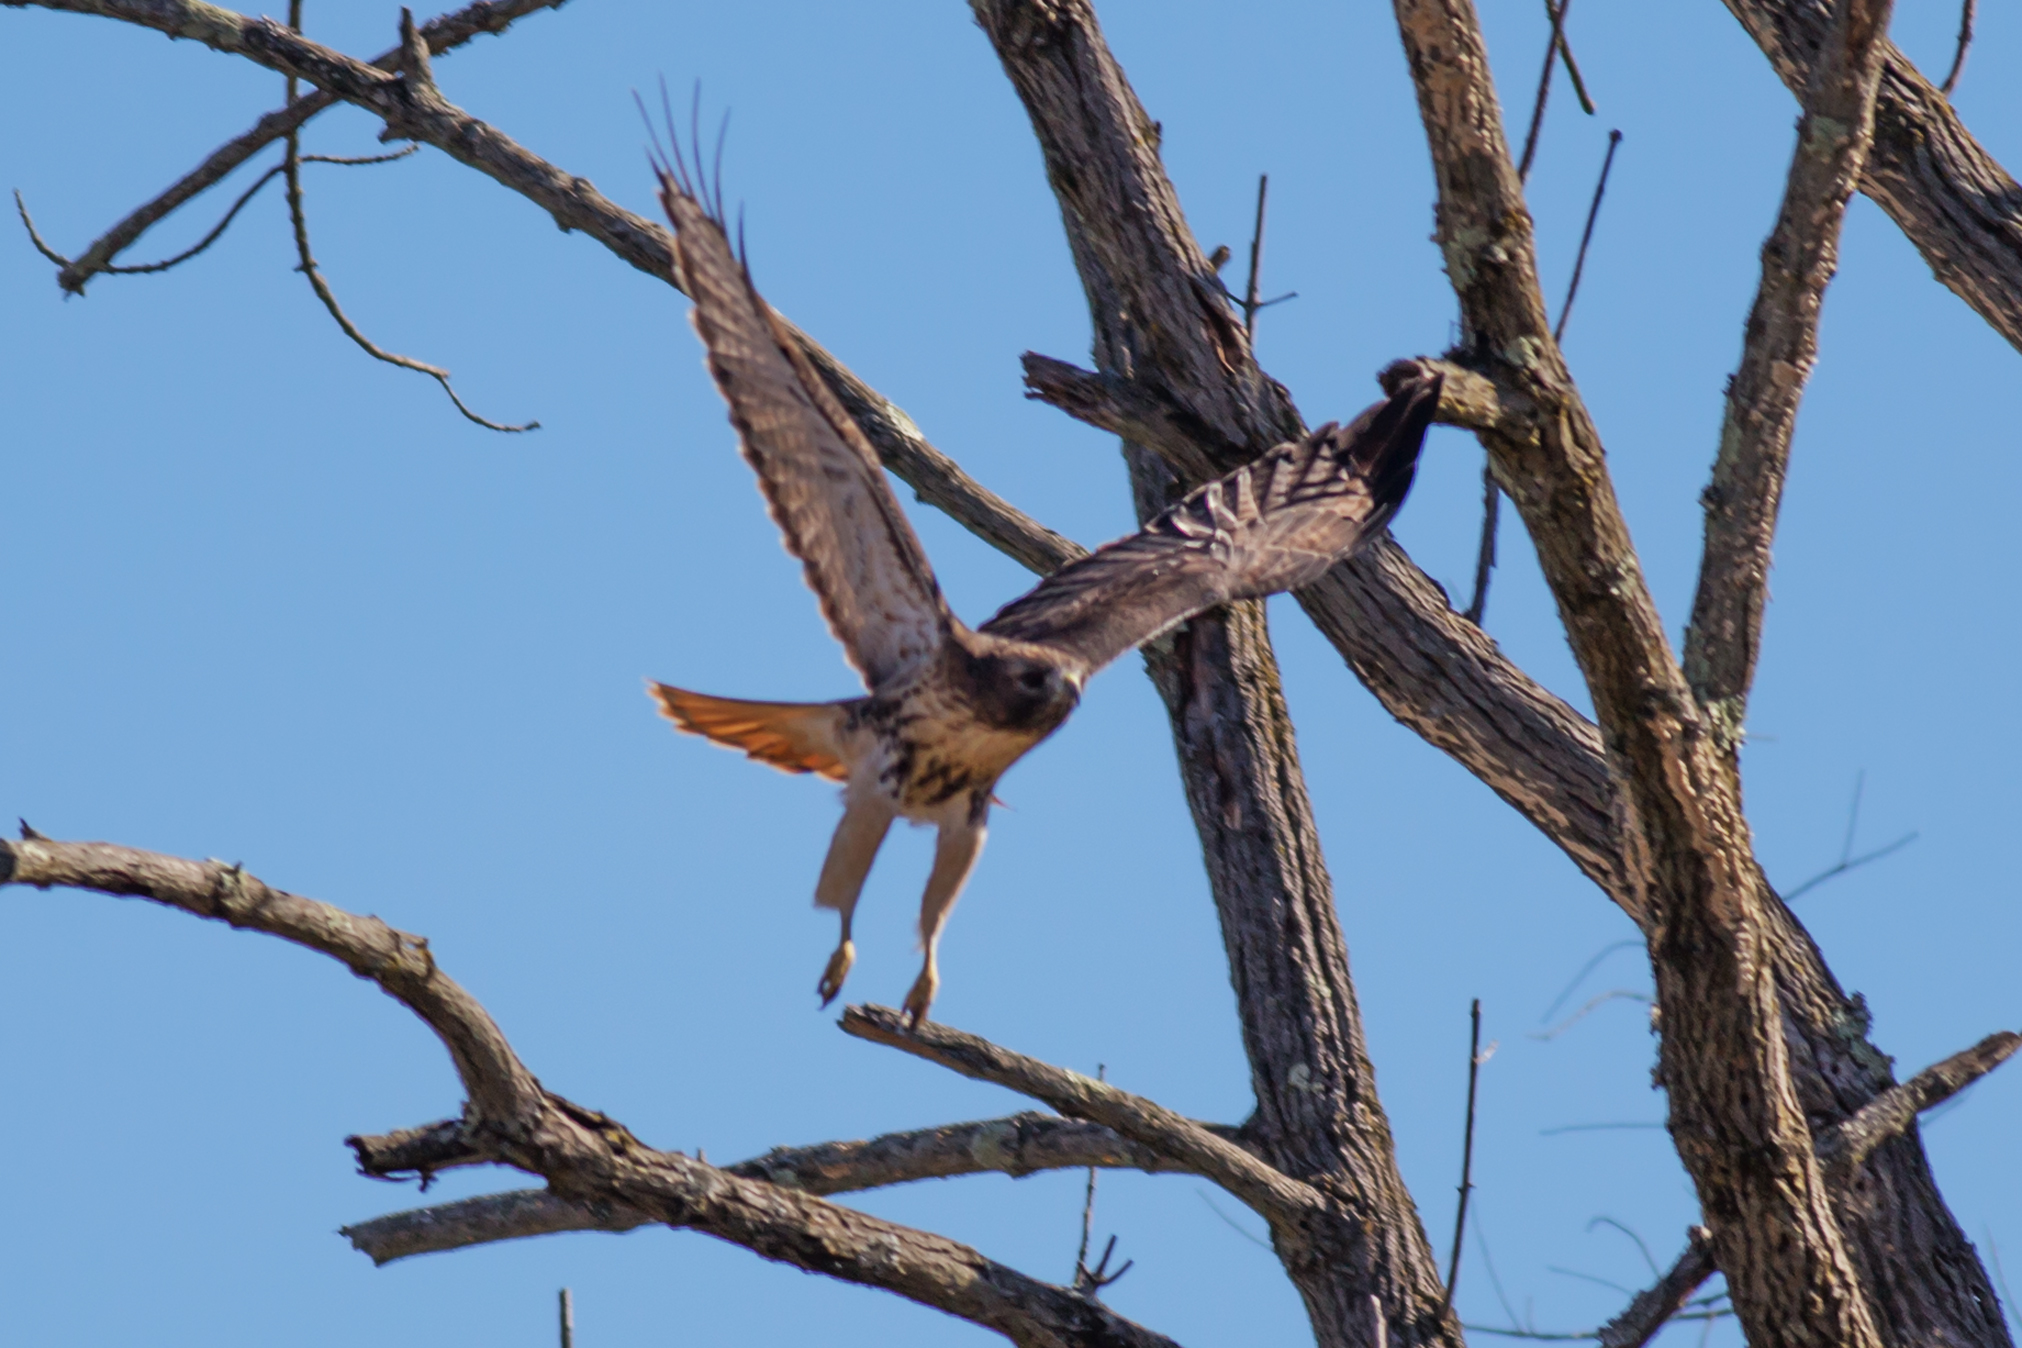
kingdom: Animalia
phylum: Chordata
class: Aves
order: Accipitriformes
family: Accipitridae
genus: Buteo
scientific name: Buteo jamaicensis
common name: Red-tailed hawk
